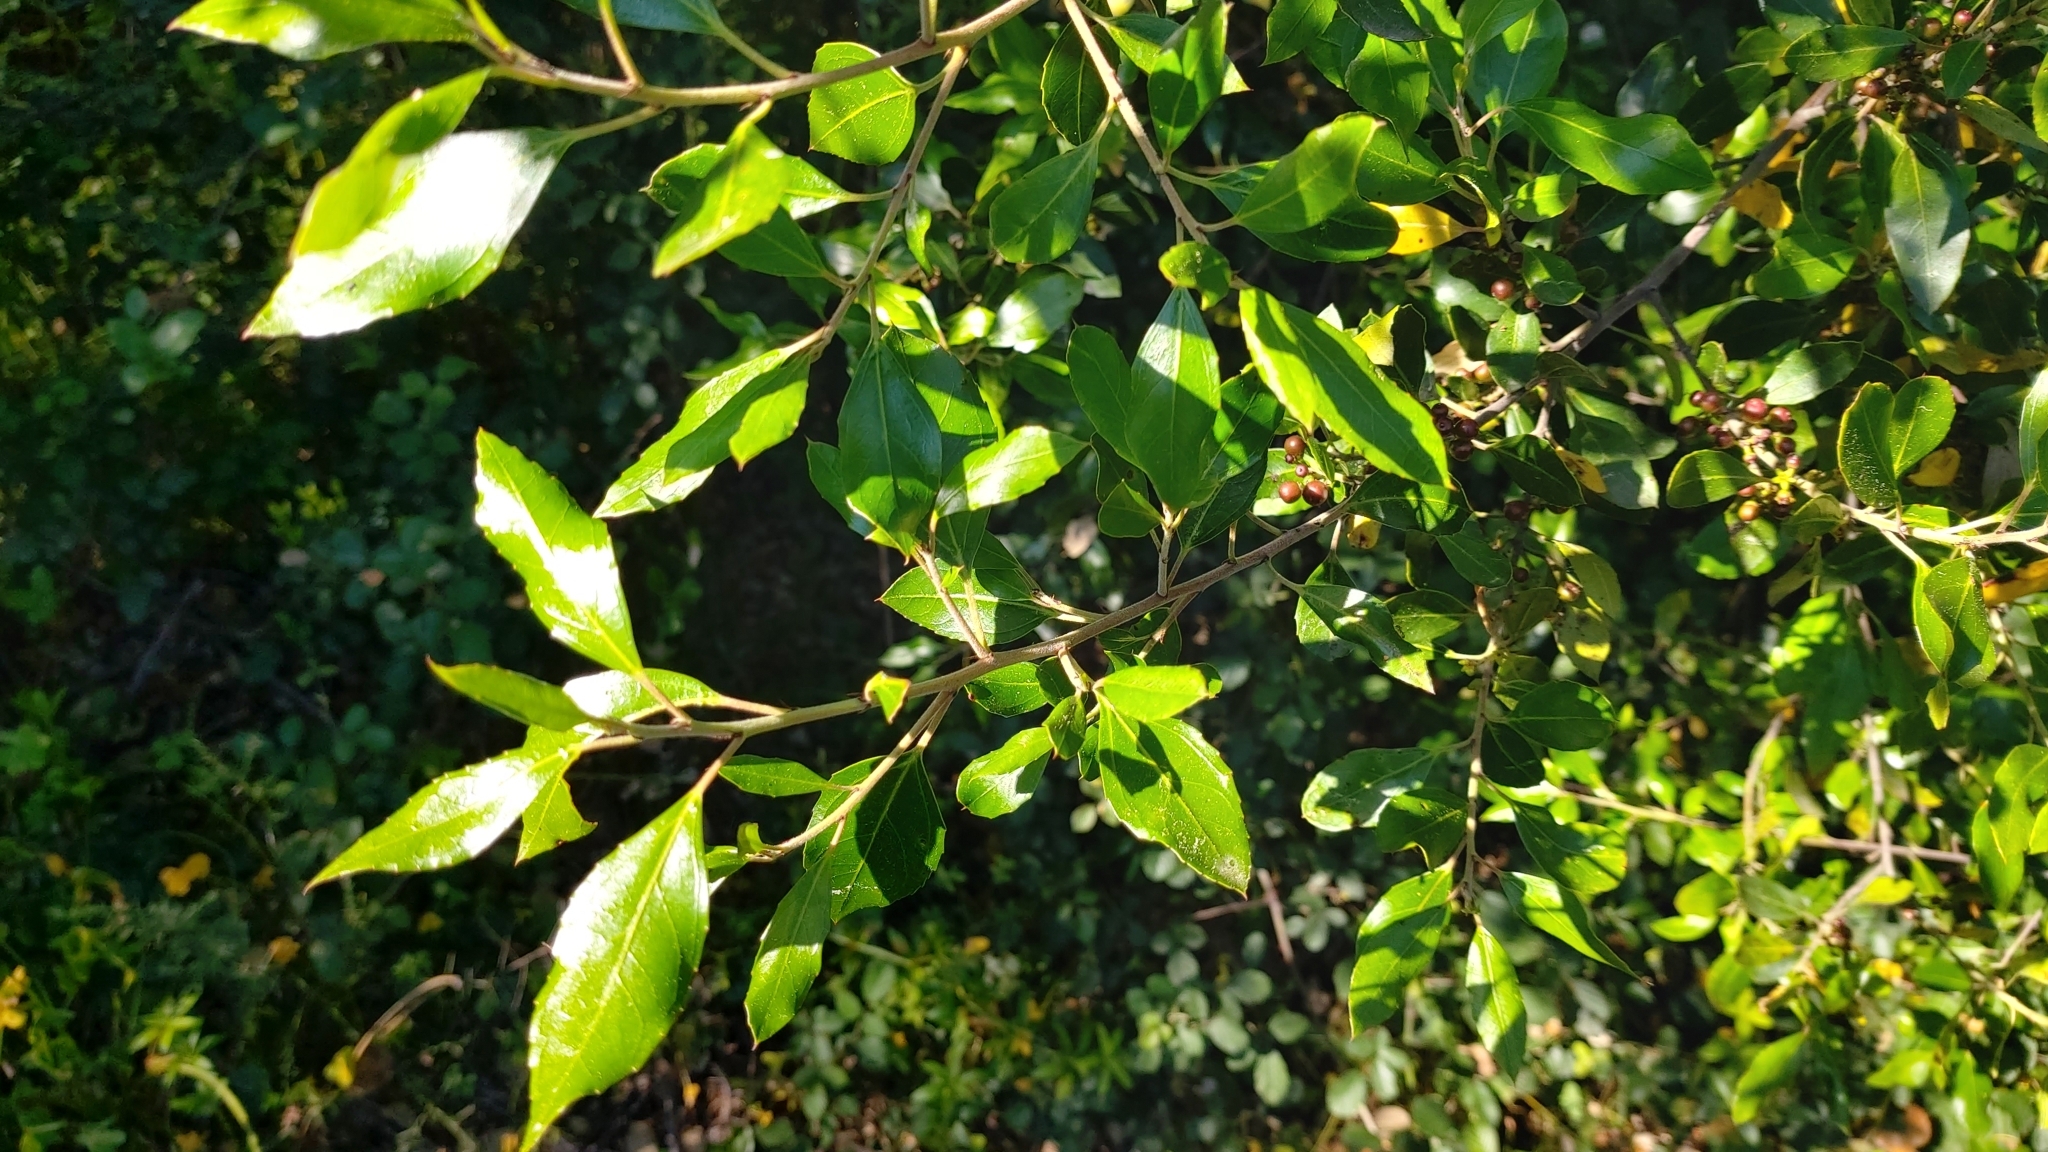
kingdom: Plantae
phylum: Tracheophyta
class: Magnoliopsida
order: Rosales
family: Rhamnaceae
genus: Rhamnus
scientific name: Rhamnus alaternus
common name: Mediterranean buckthorn
